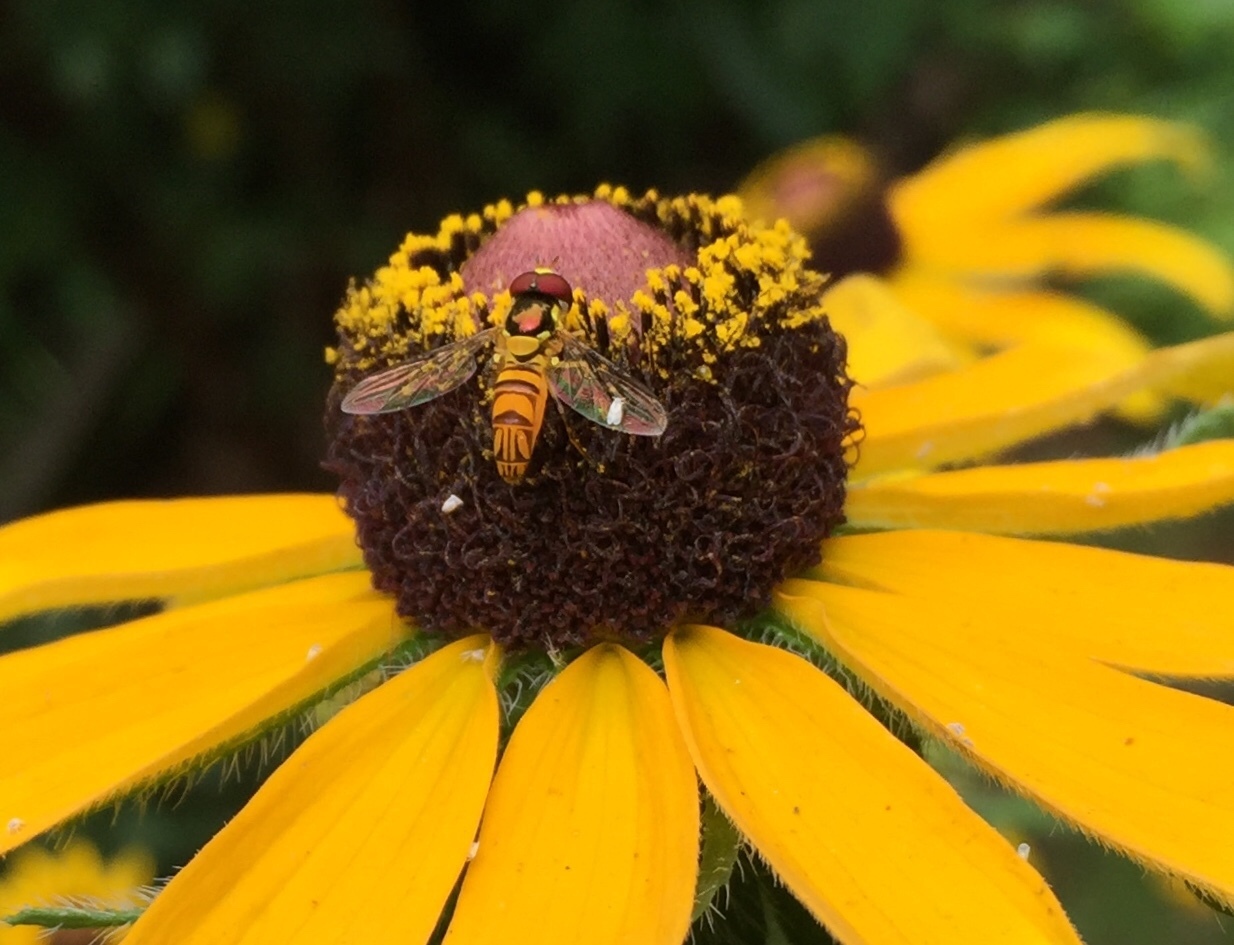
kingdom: Animalia
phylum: Arthropoda
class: Insecta
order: Diptera
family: Syrphidae
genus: Allograpta
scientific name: Allograpta obliqua
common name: Common oblique syrphid
